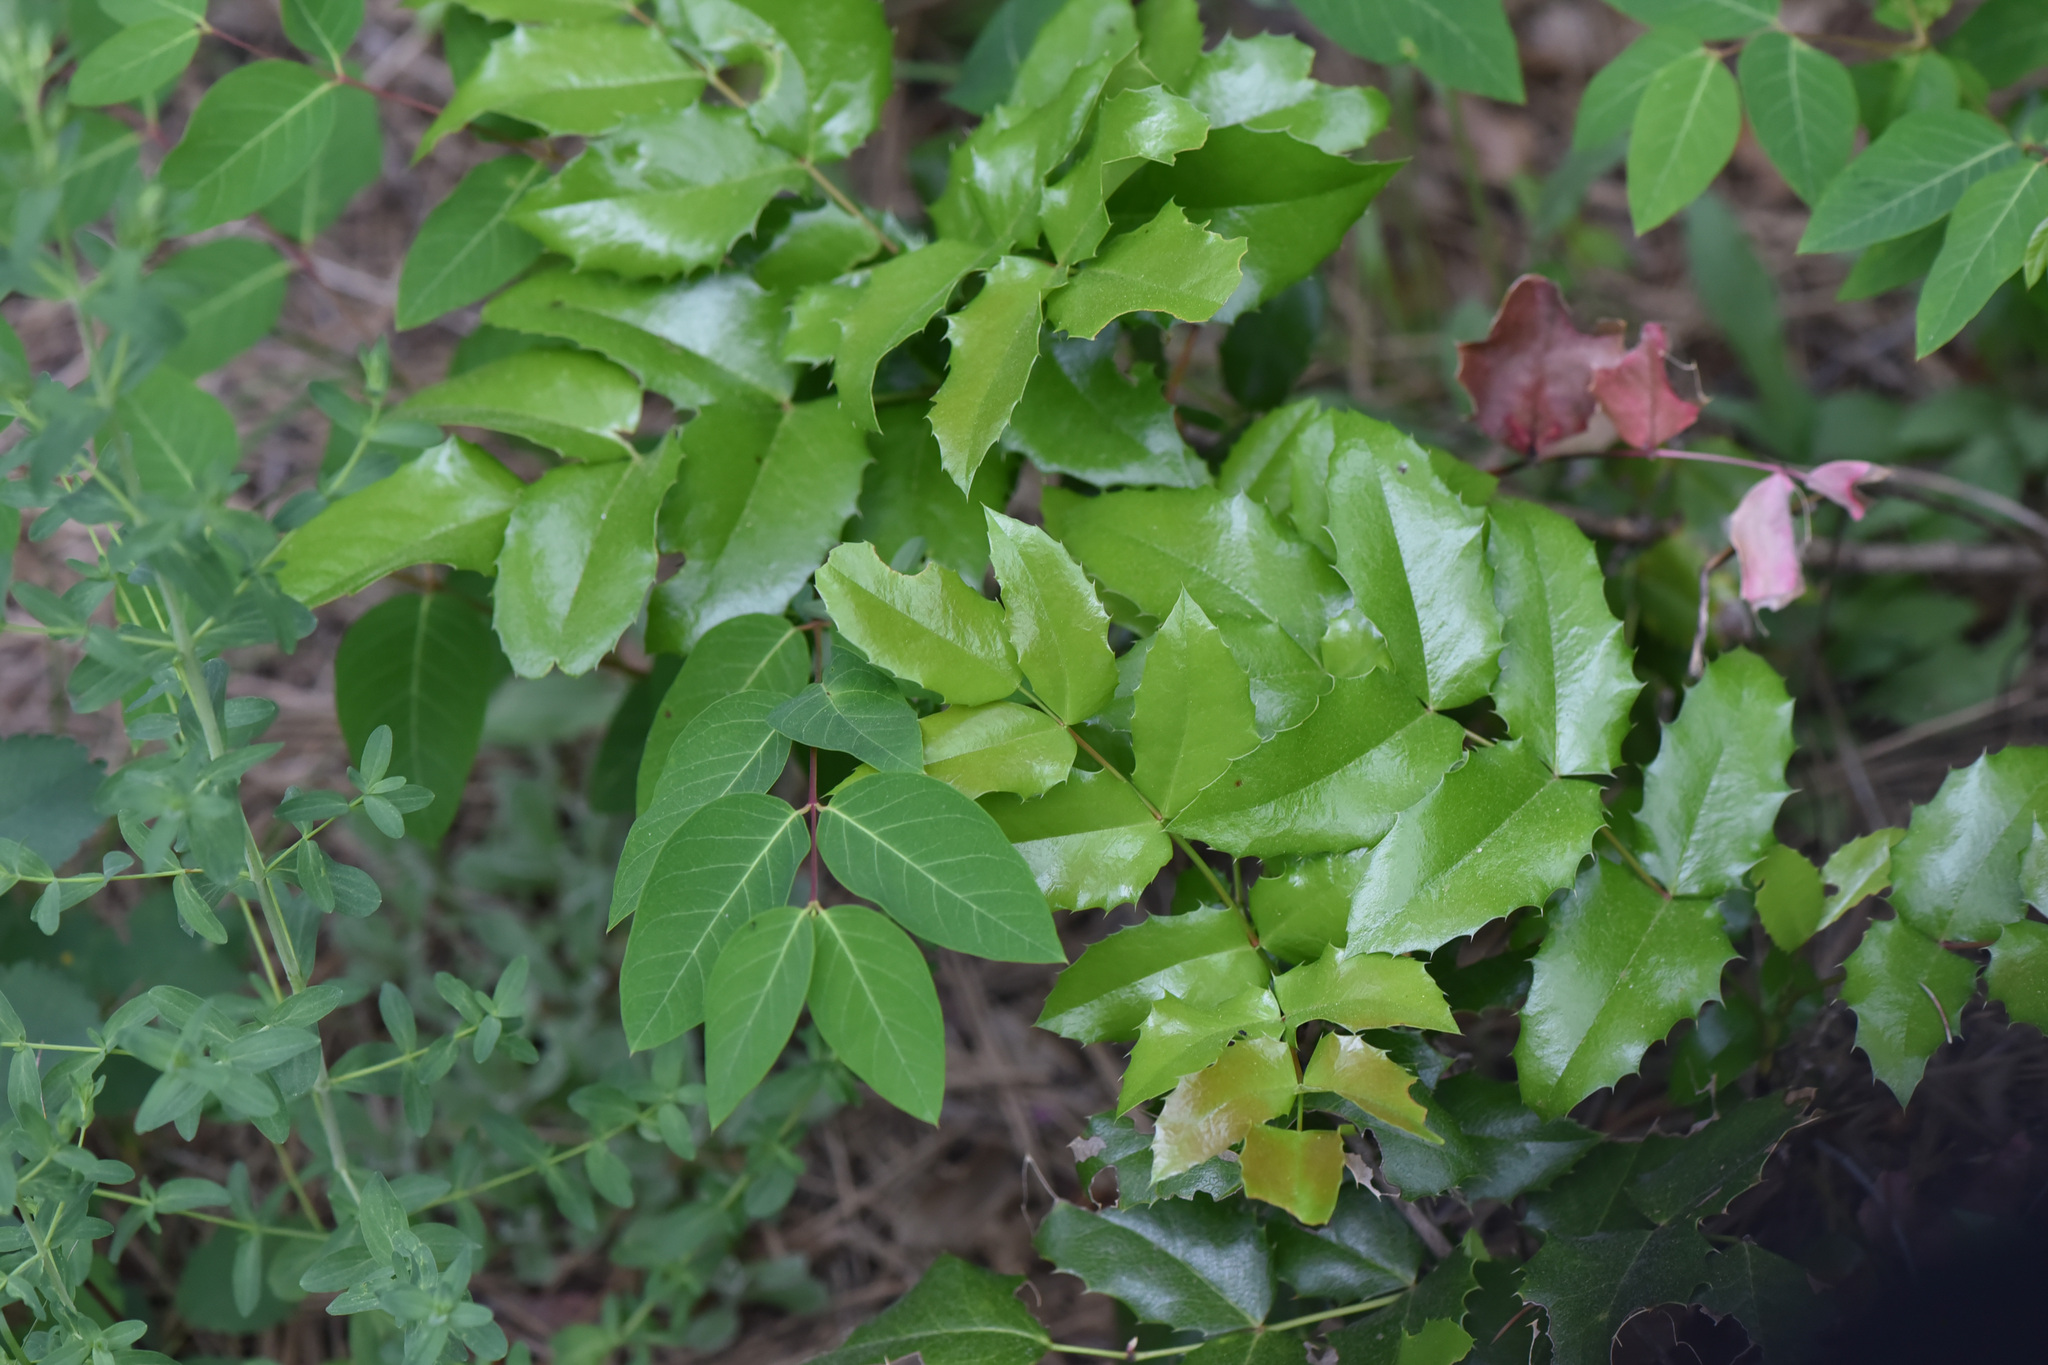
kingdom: Plantae
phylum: Tracheophyta
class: Magnoliopsida
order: Ranunculales
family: Berberidaceae
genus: Mahonia
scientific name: Mahonia aquifolium
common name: Oregon-grape
